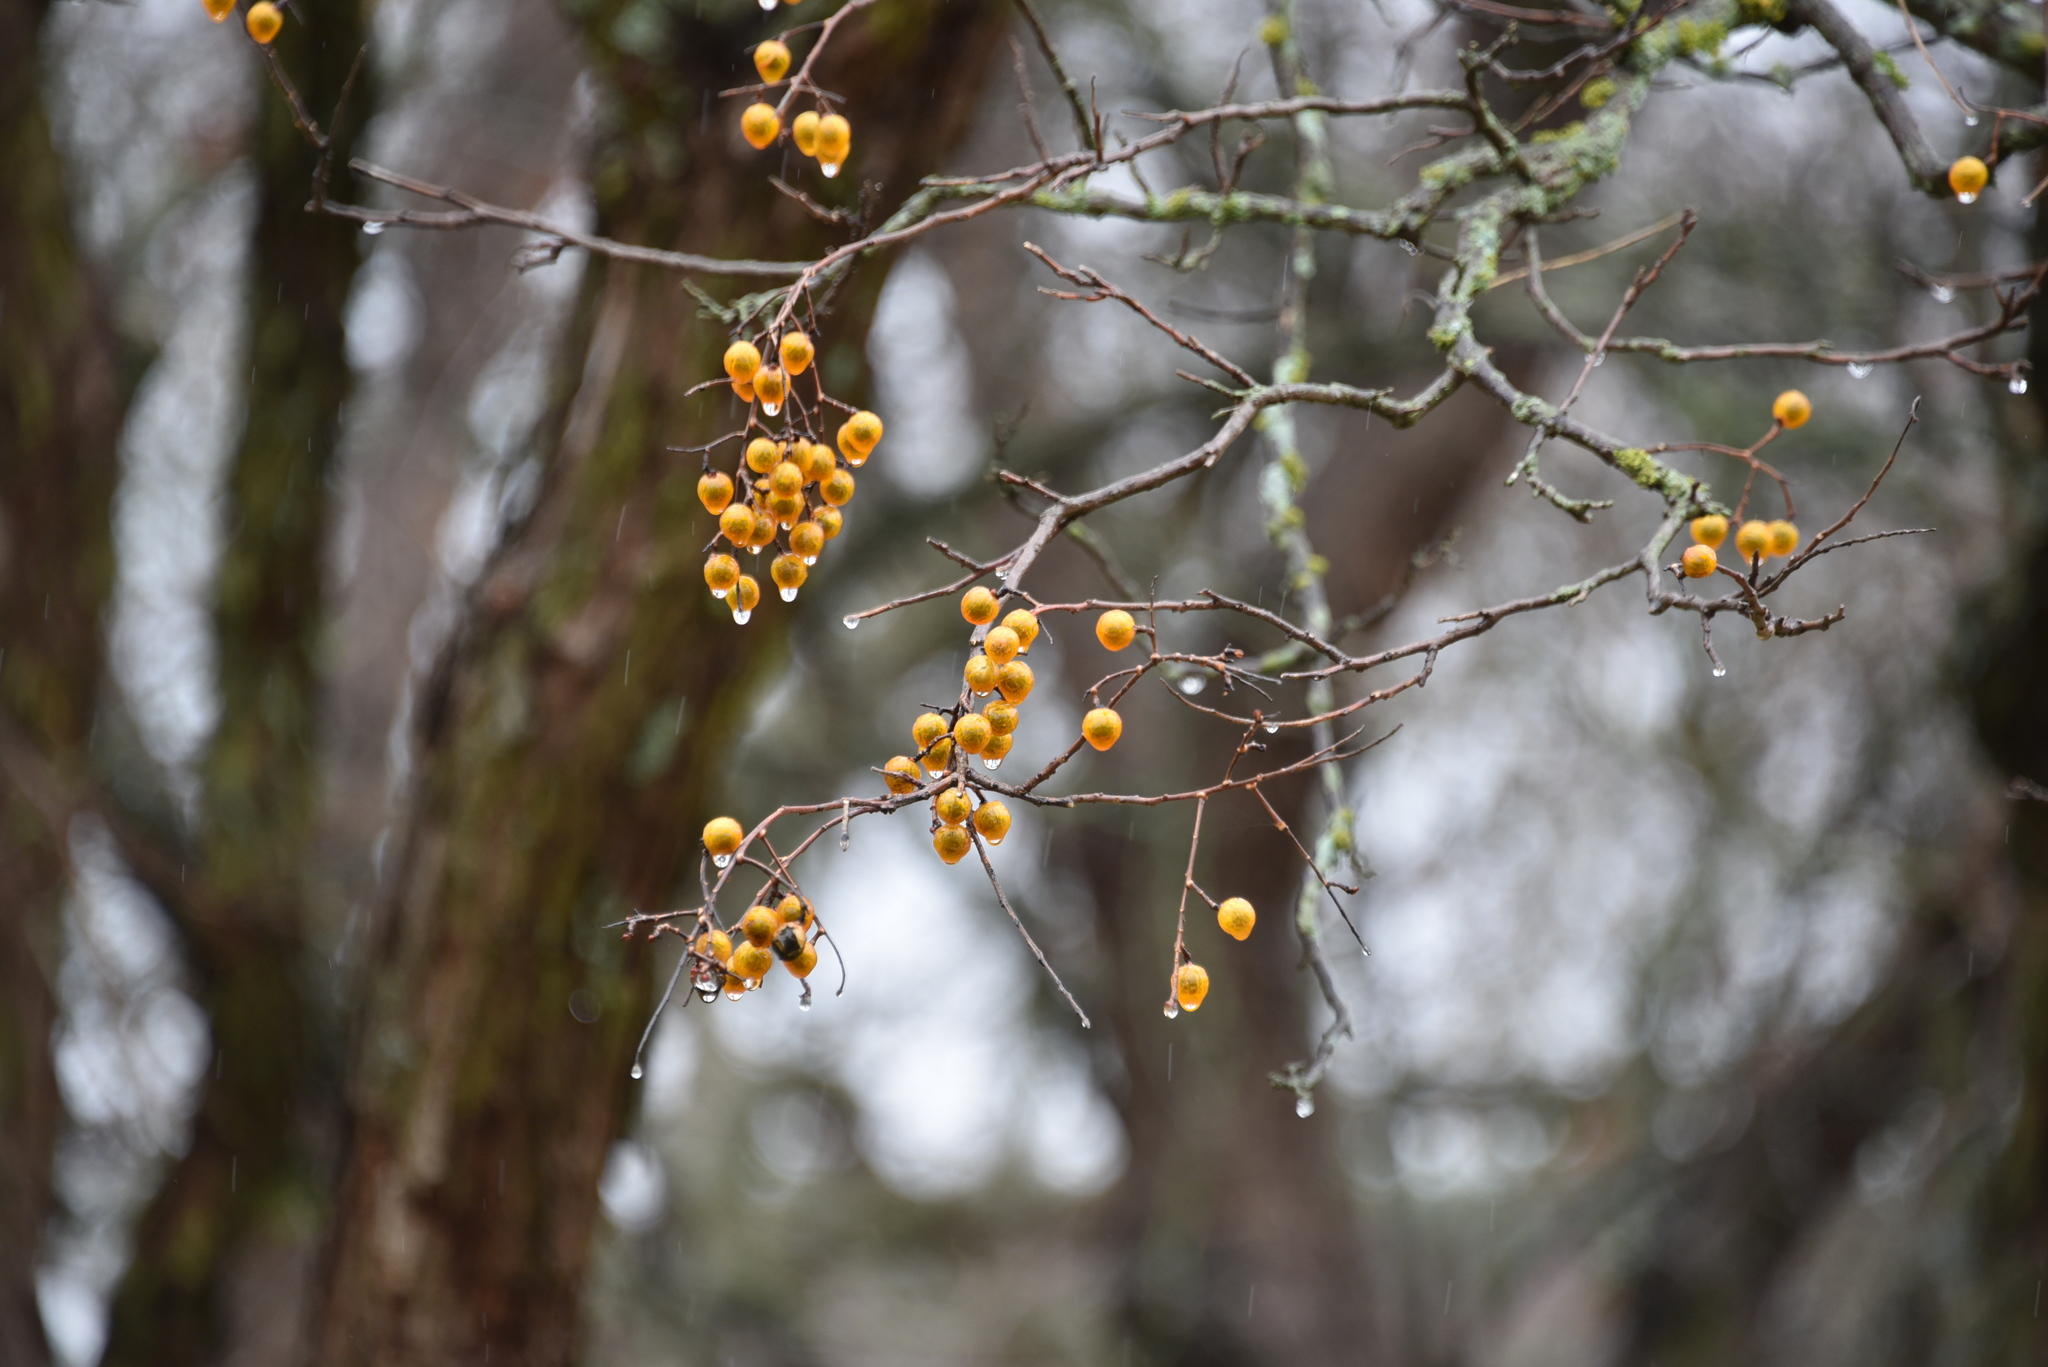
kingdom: Plantae
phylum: Tracheophyta
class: Magnoliopsida
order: Sapindales
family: Sapindaceae
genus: Sapindus
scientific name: Sapindus drummondii
